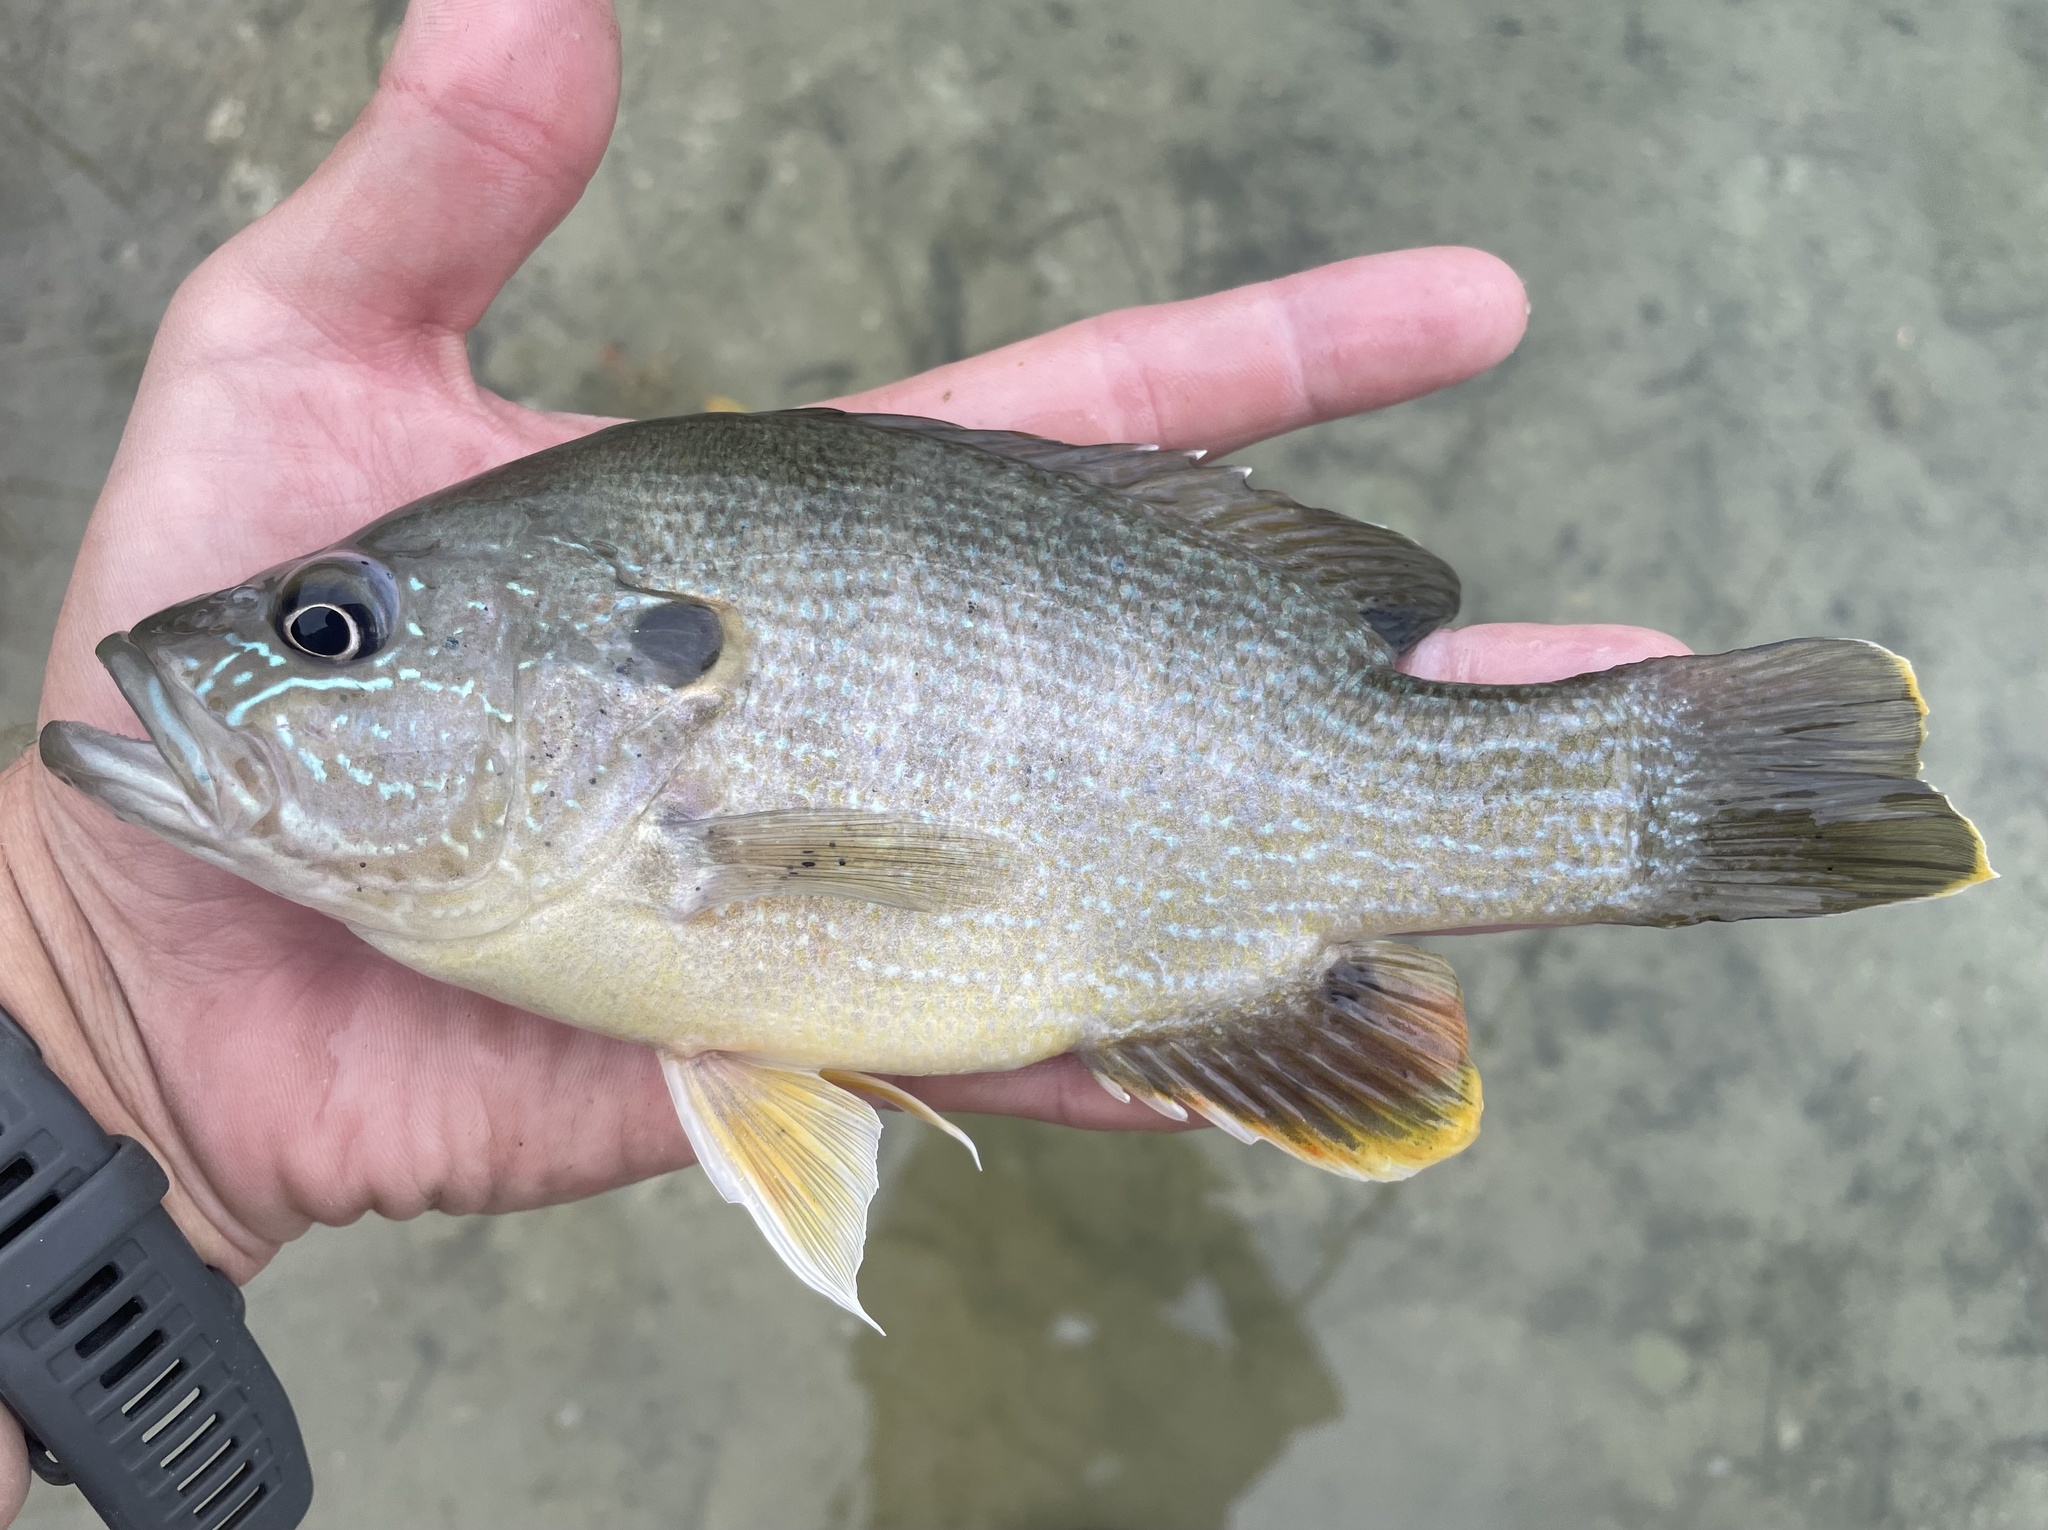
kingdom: Animalia
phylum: Chordata
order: Perciformes
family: Centrarchidae
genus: Lepomis
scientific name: Lepomis cyanellus
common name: Green sunfish
